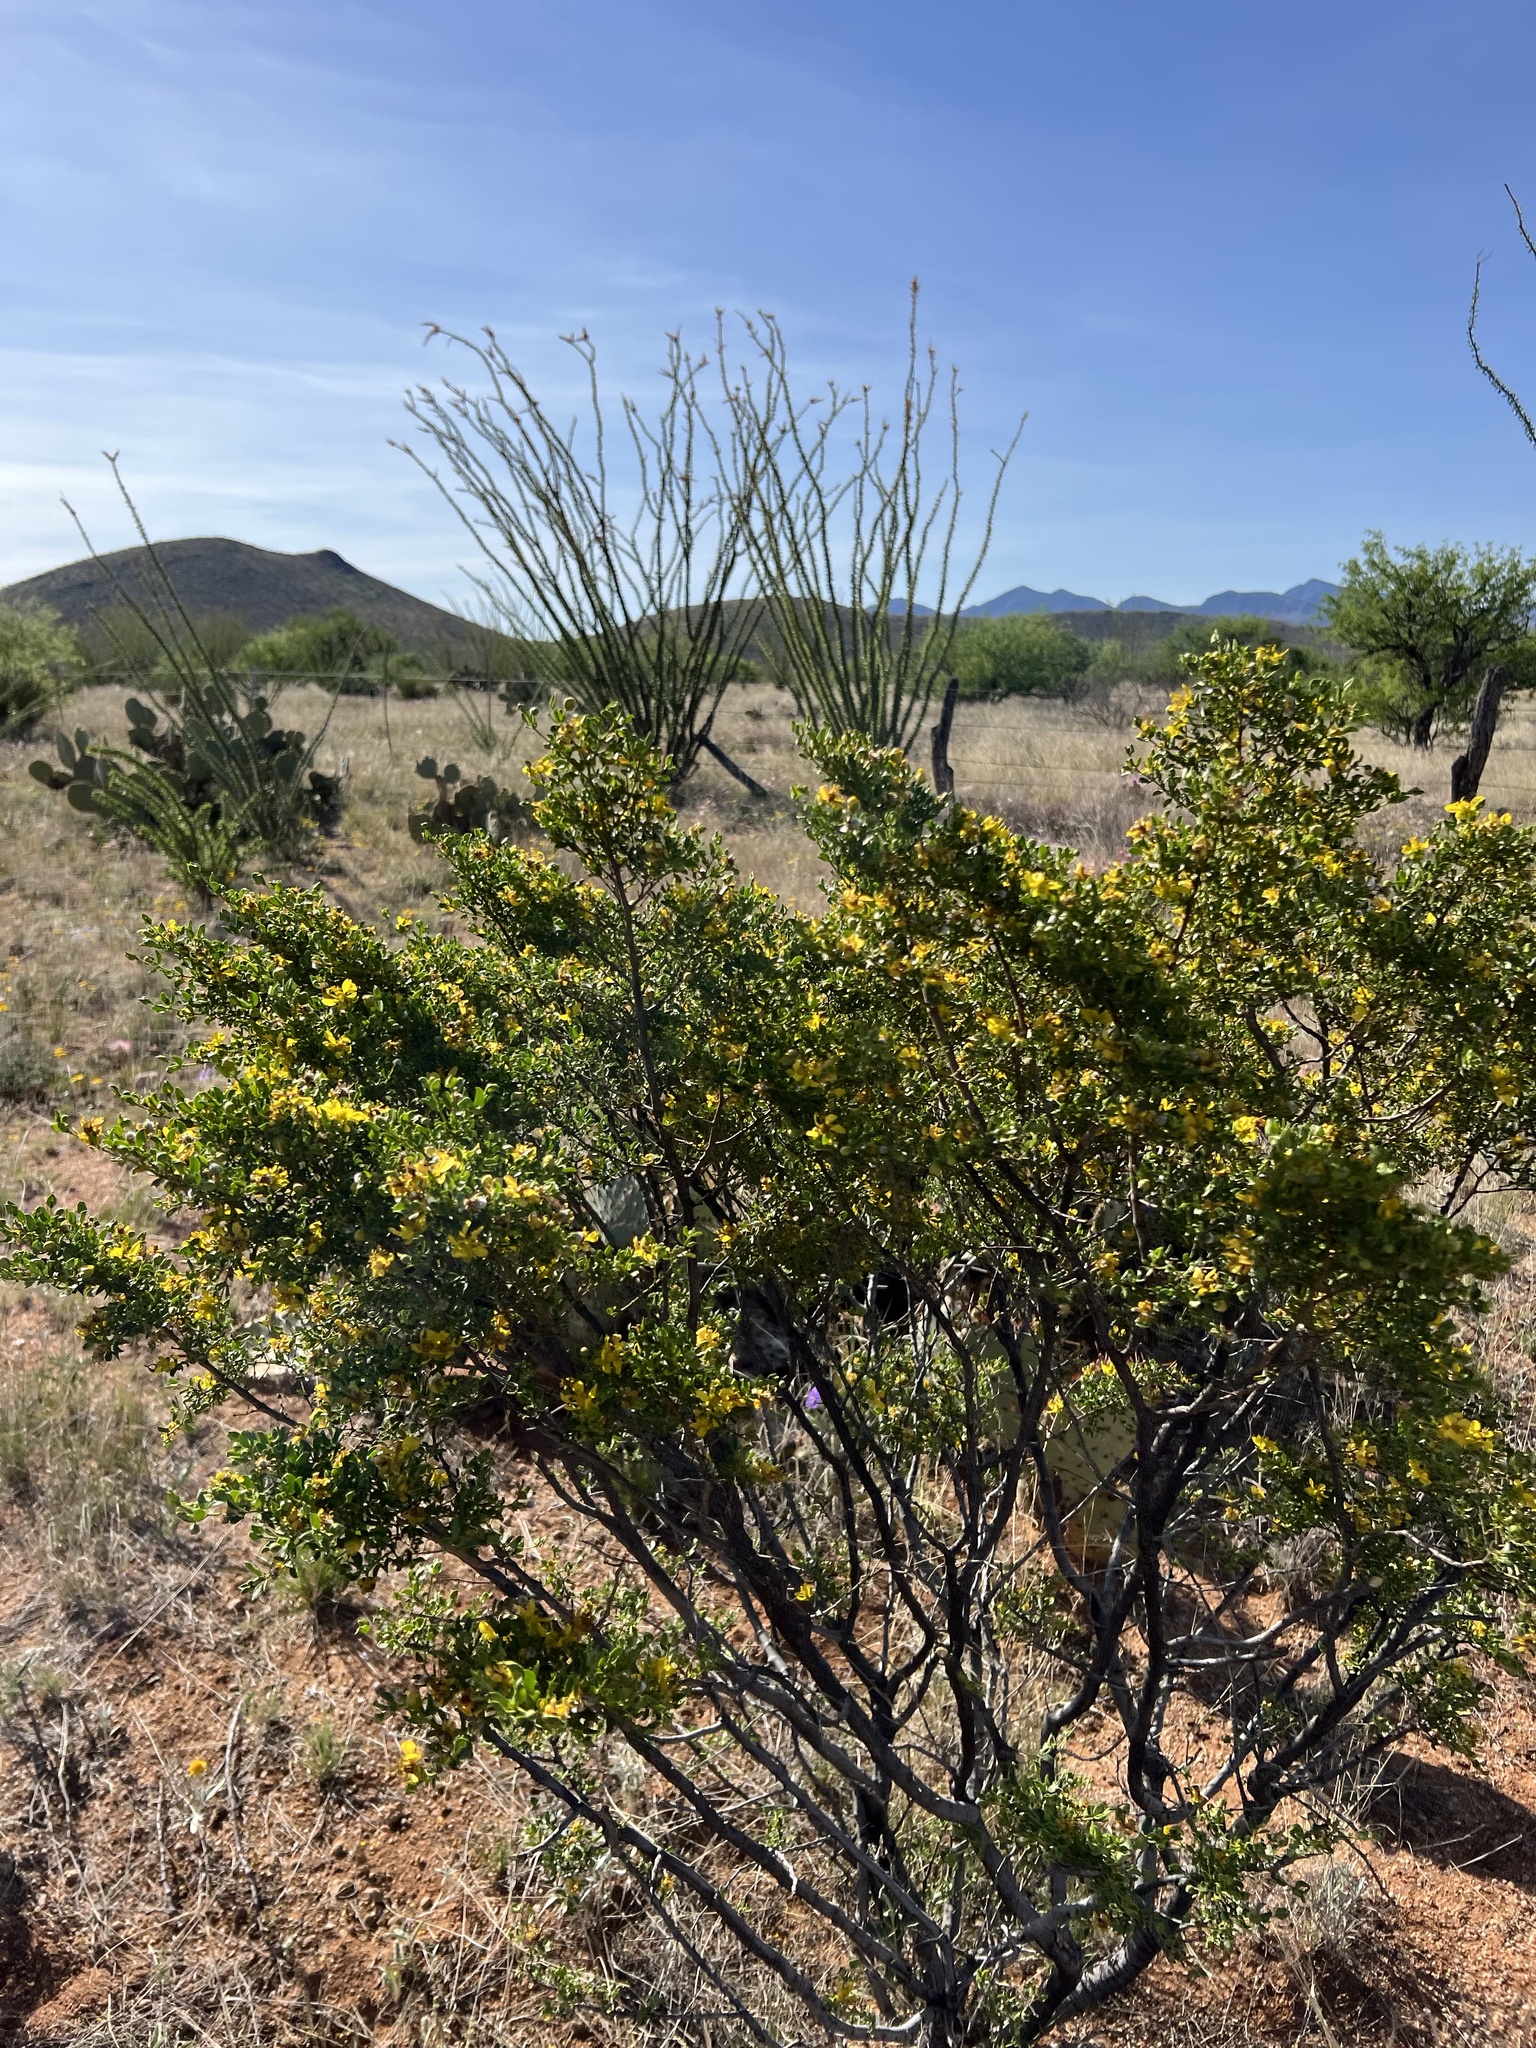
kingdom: Plantae
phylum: Tracheophyta
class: Magnoliopsida
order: Zygophyllales
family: Zygophyllaceae
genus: Larrea
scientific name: Larrea tridentata
